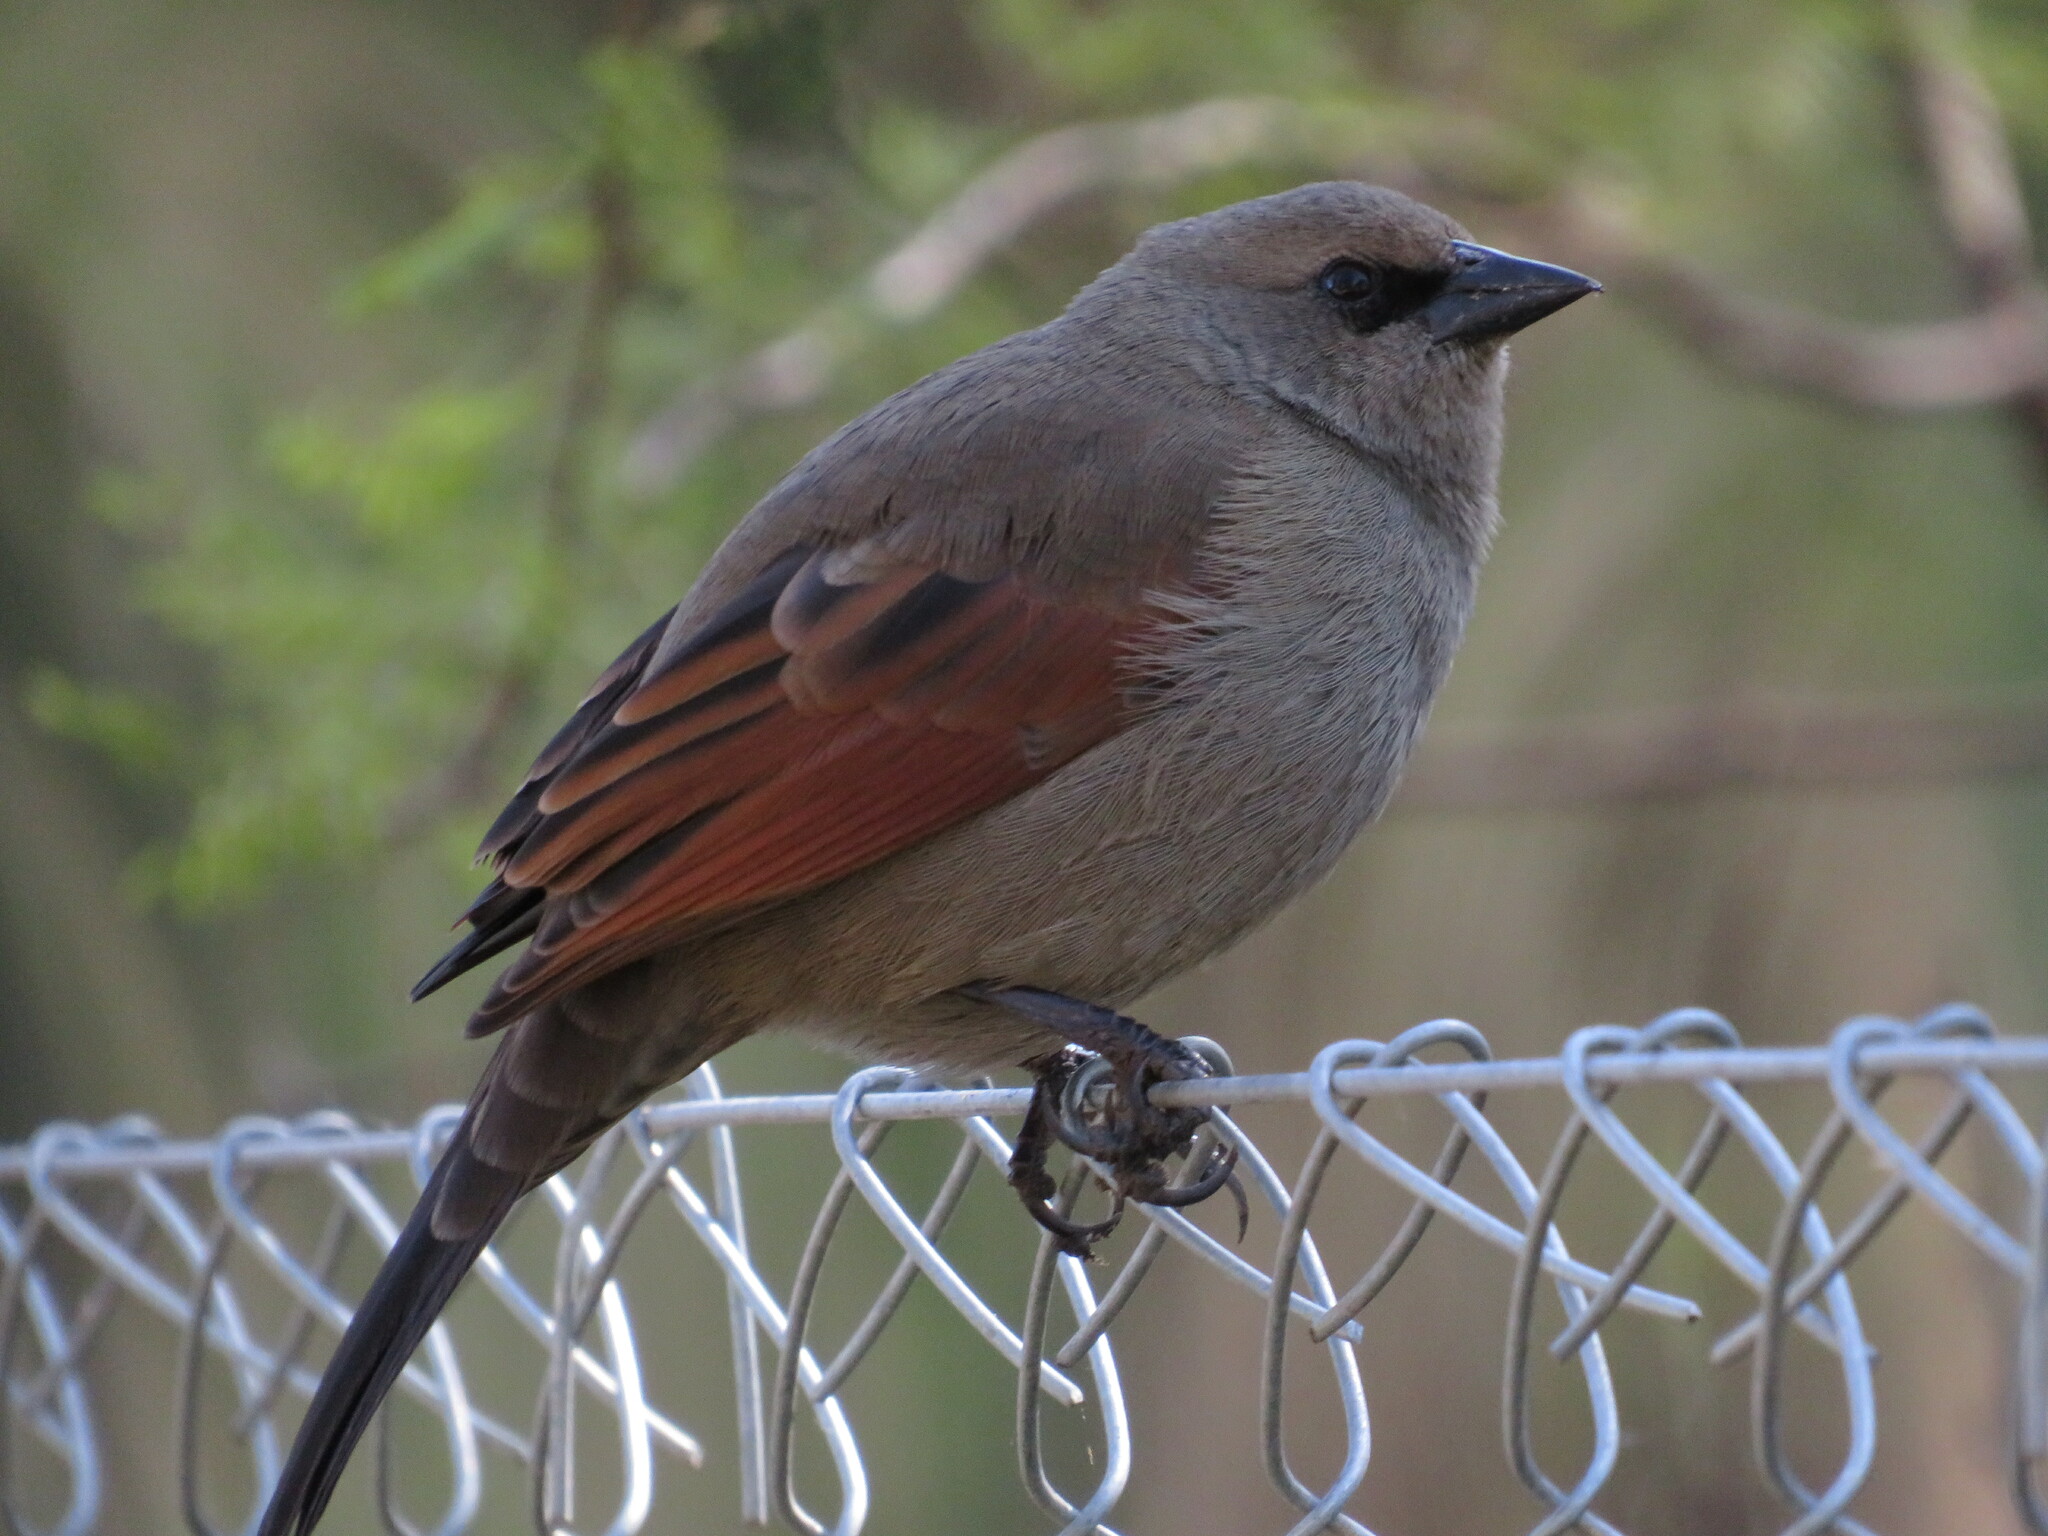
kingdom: Animalia
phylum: Chordata
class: Aves
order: Passeriformes
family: Icteridae
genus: Agelaioides
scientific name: Agelaioides badius
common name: Baywing
